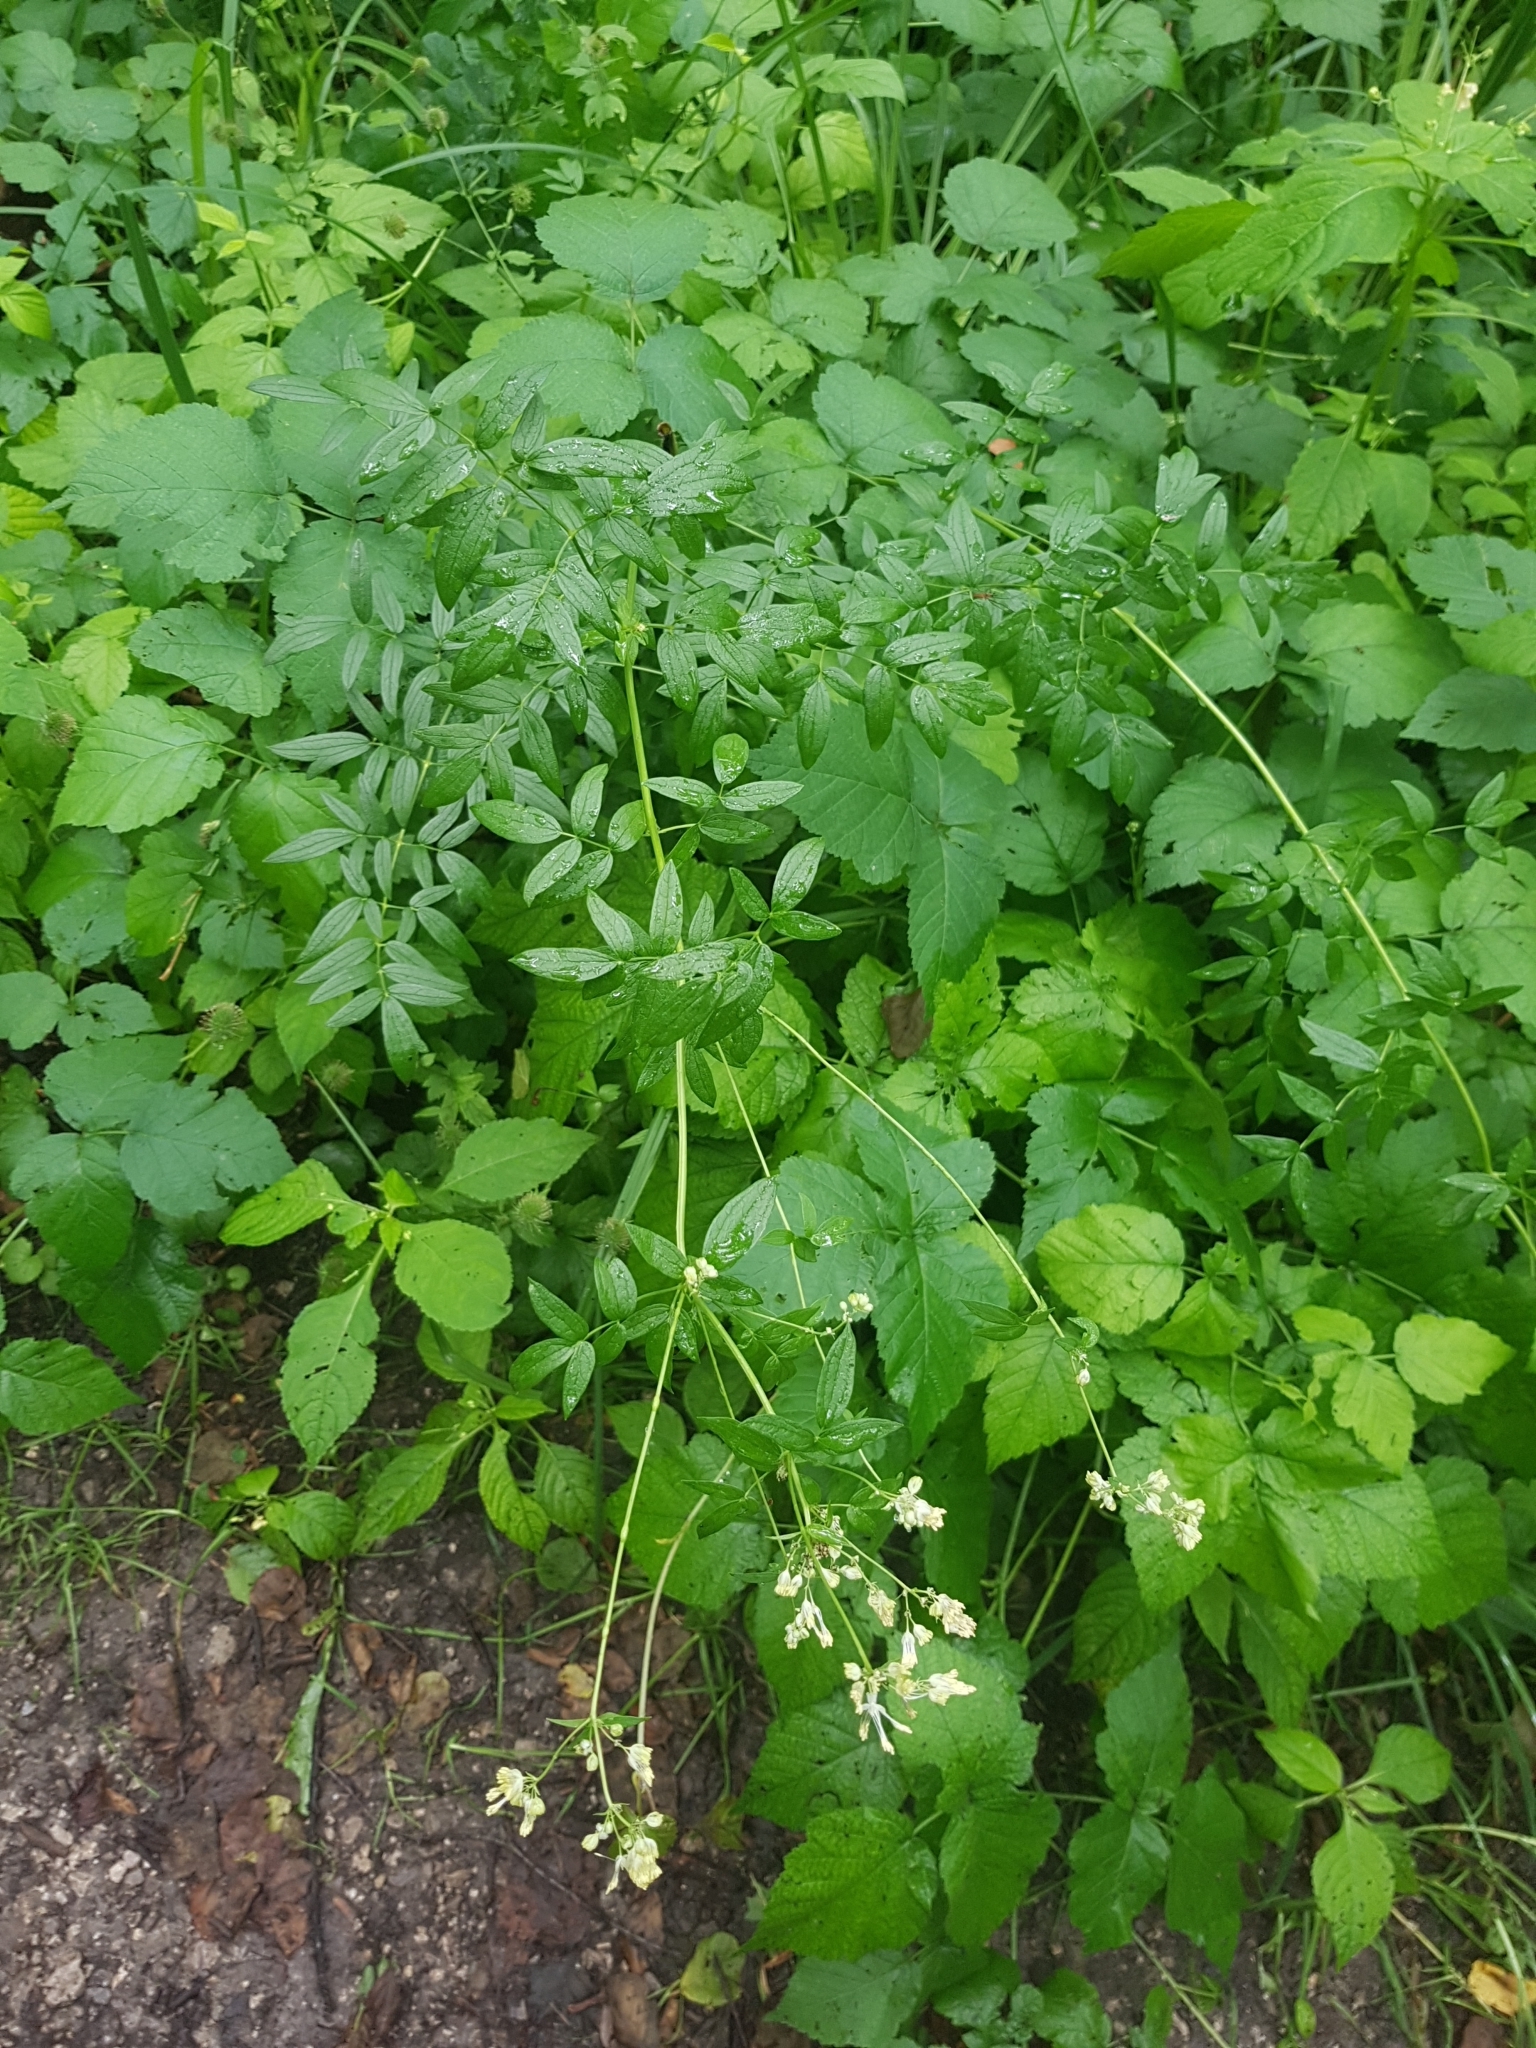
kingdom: Plantae
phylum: Tracheophyta
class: Magnoliopsida
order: Ranunculales
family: Ranunculaceae
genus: Thalictrum
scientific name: Thalictrum lucidum
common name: Shining meadow-rue
